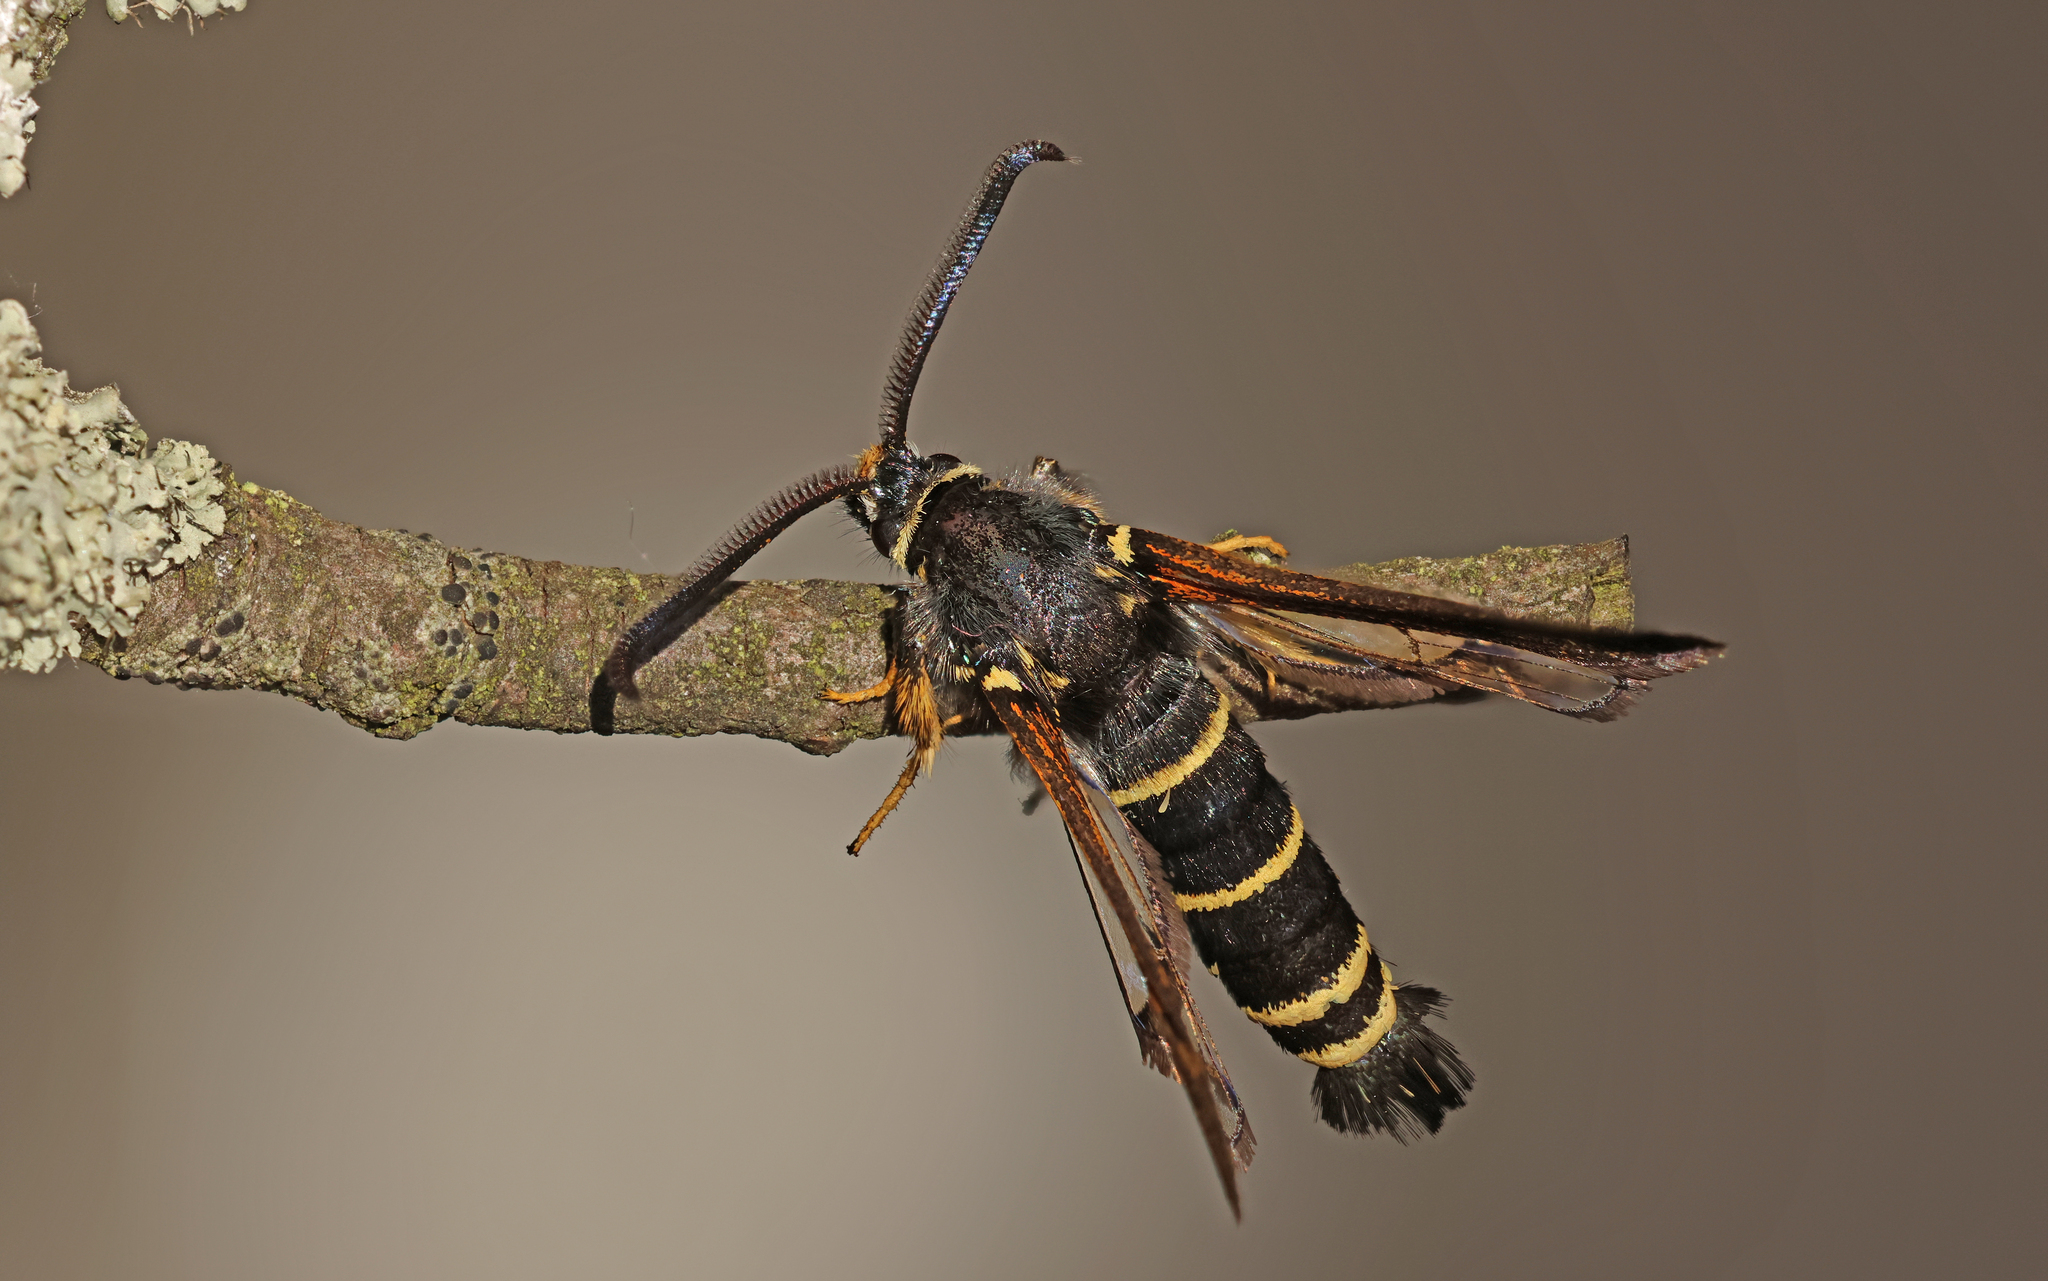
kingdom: Animalia
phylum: Arthropoda
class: Insecta
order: Lepidoptera
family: Sesiidae
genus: Paranthrene
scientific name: Paranthrene tabaniformis
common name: Dusky clearwing
